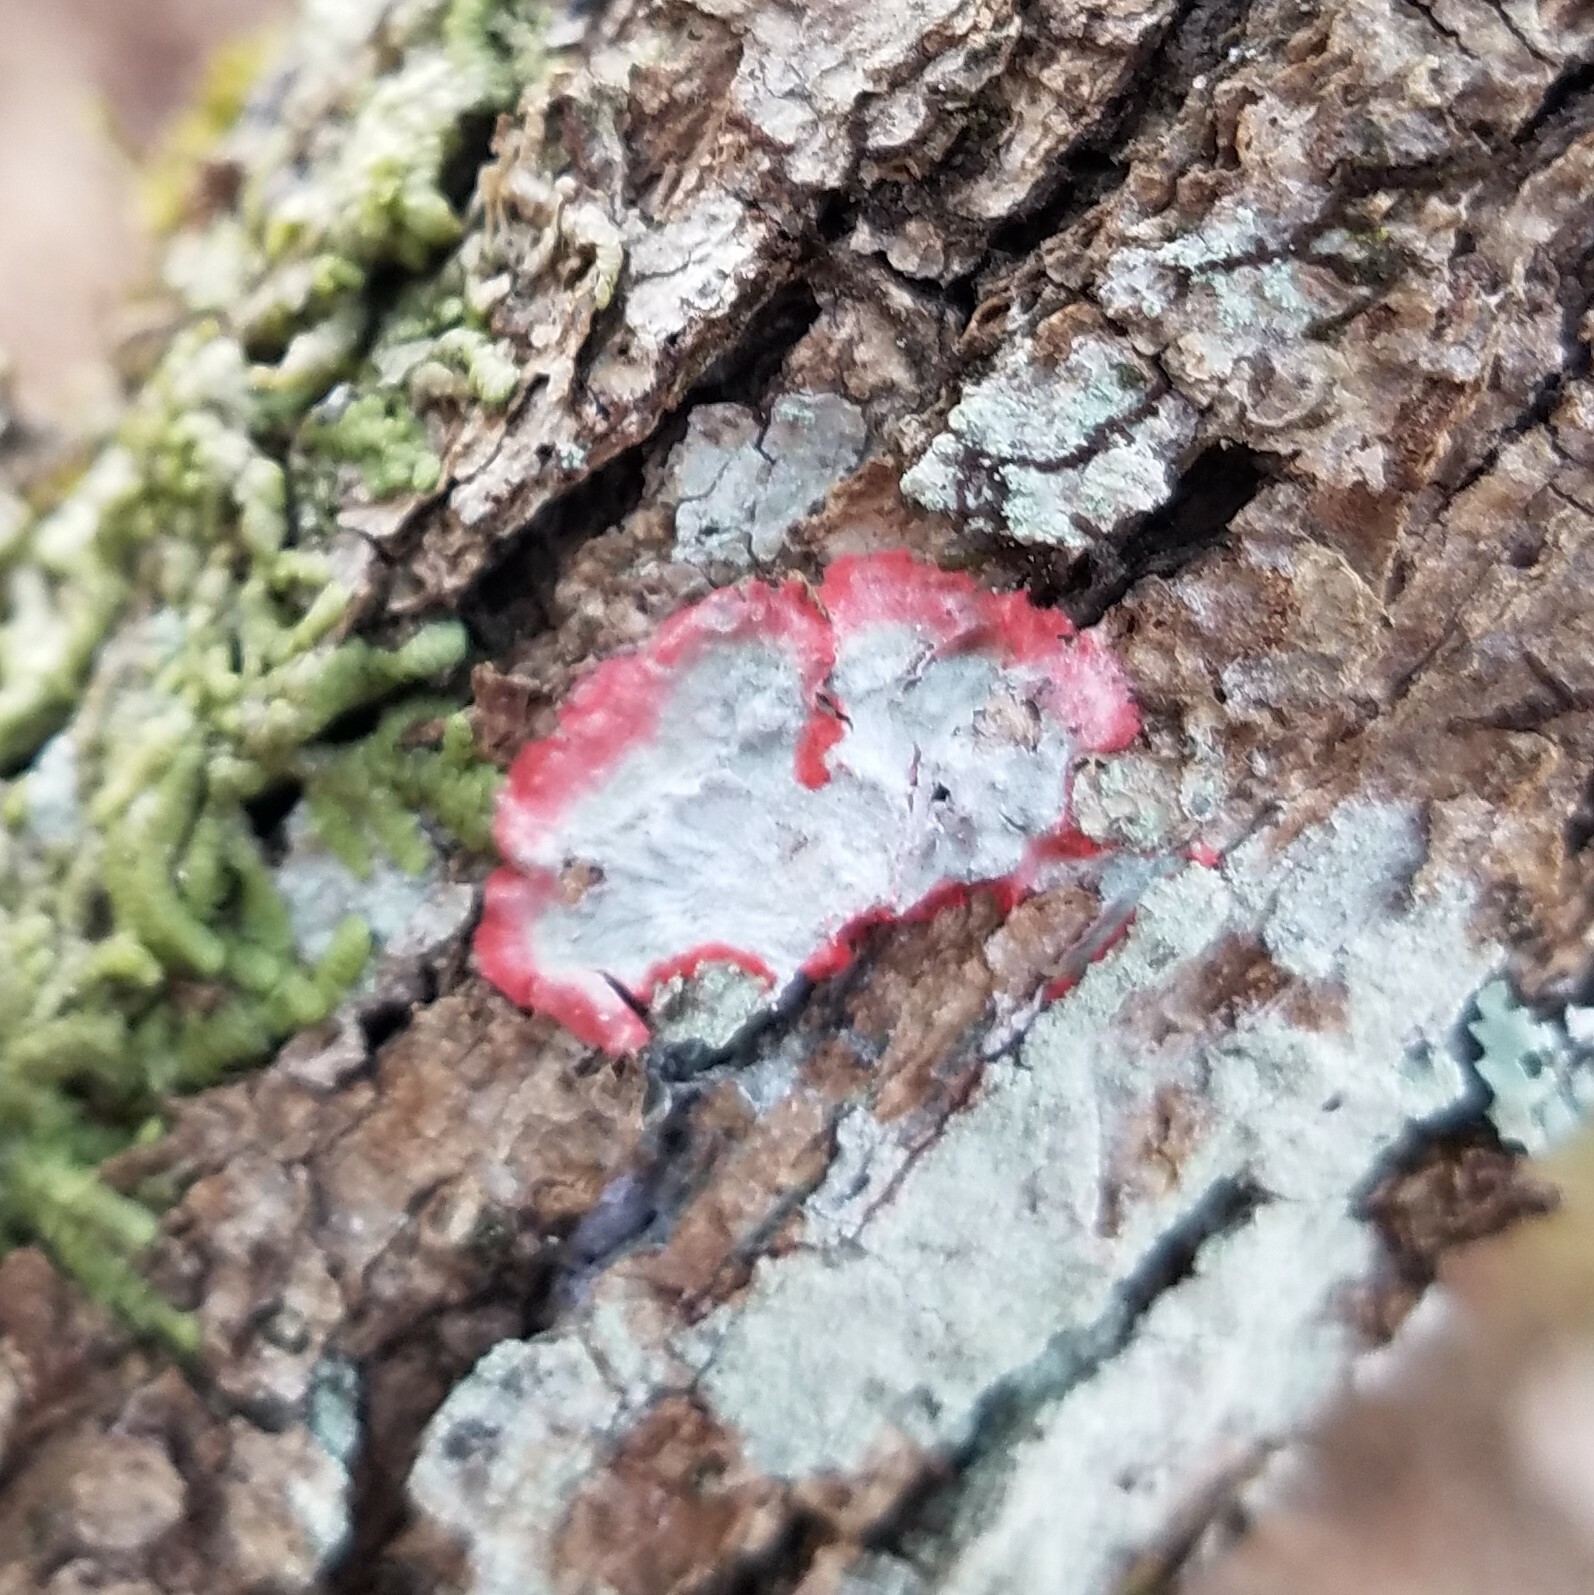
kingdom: Fungi
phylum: Ascomycota
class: Arthoniomycetes
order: Arthoniales
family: Arthoniaceae
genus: Herpothallon
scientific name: Herpothallon rubrocinctum
